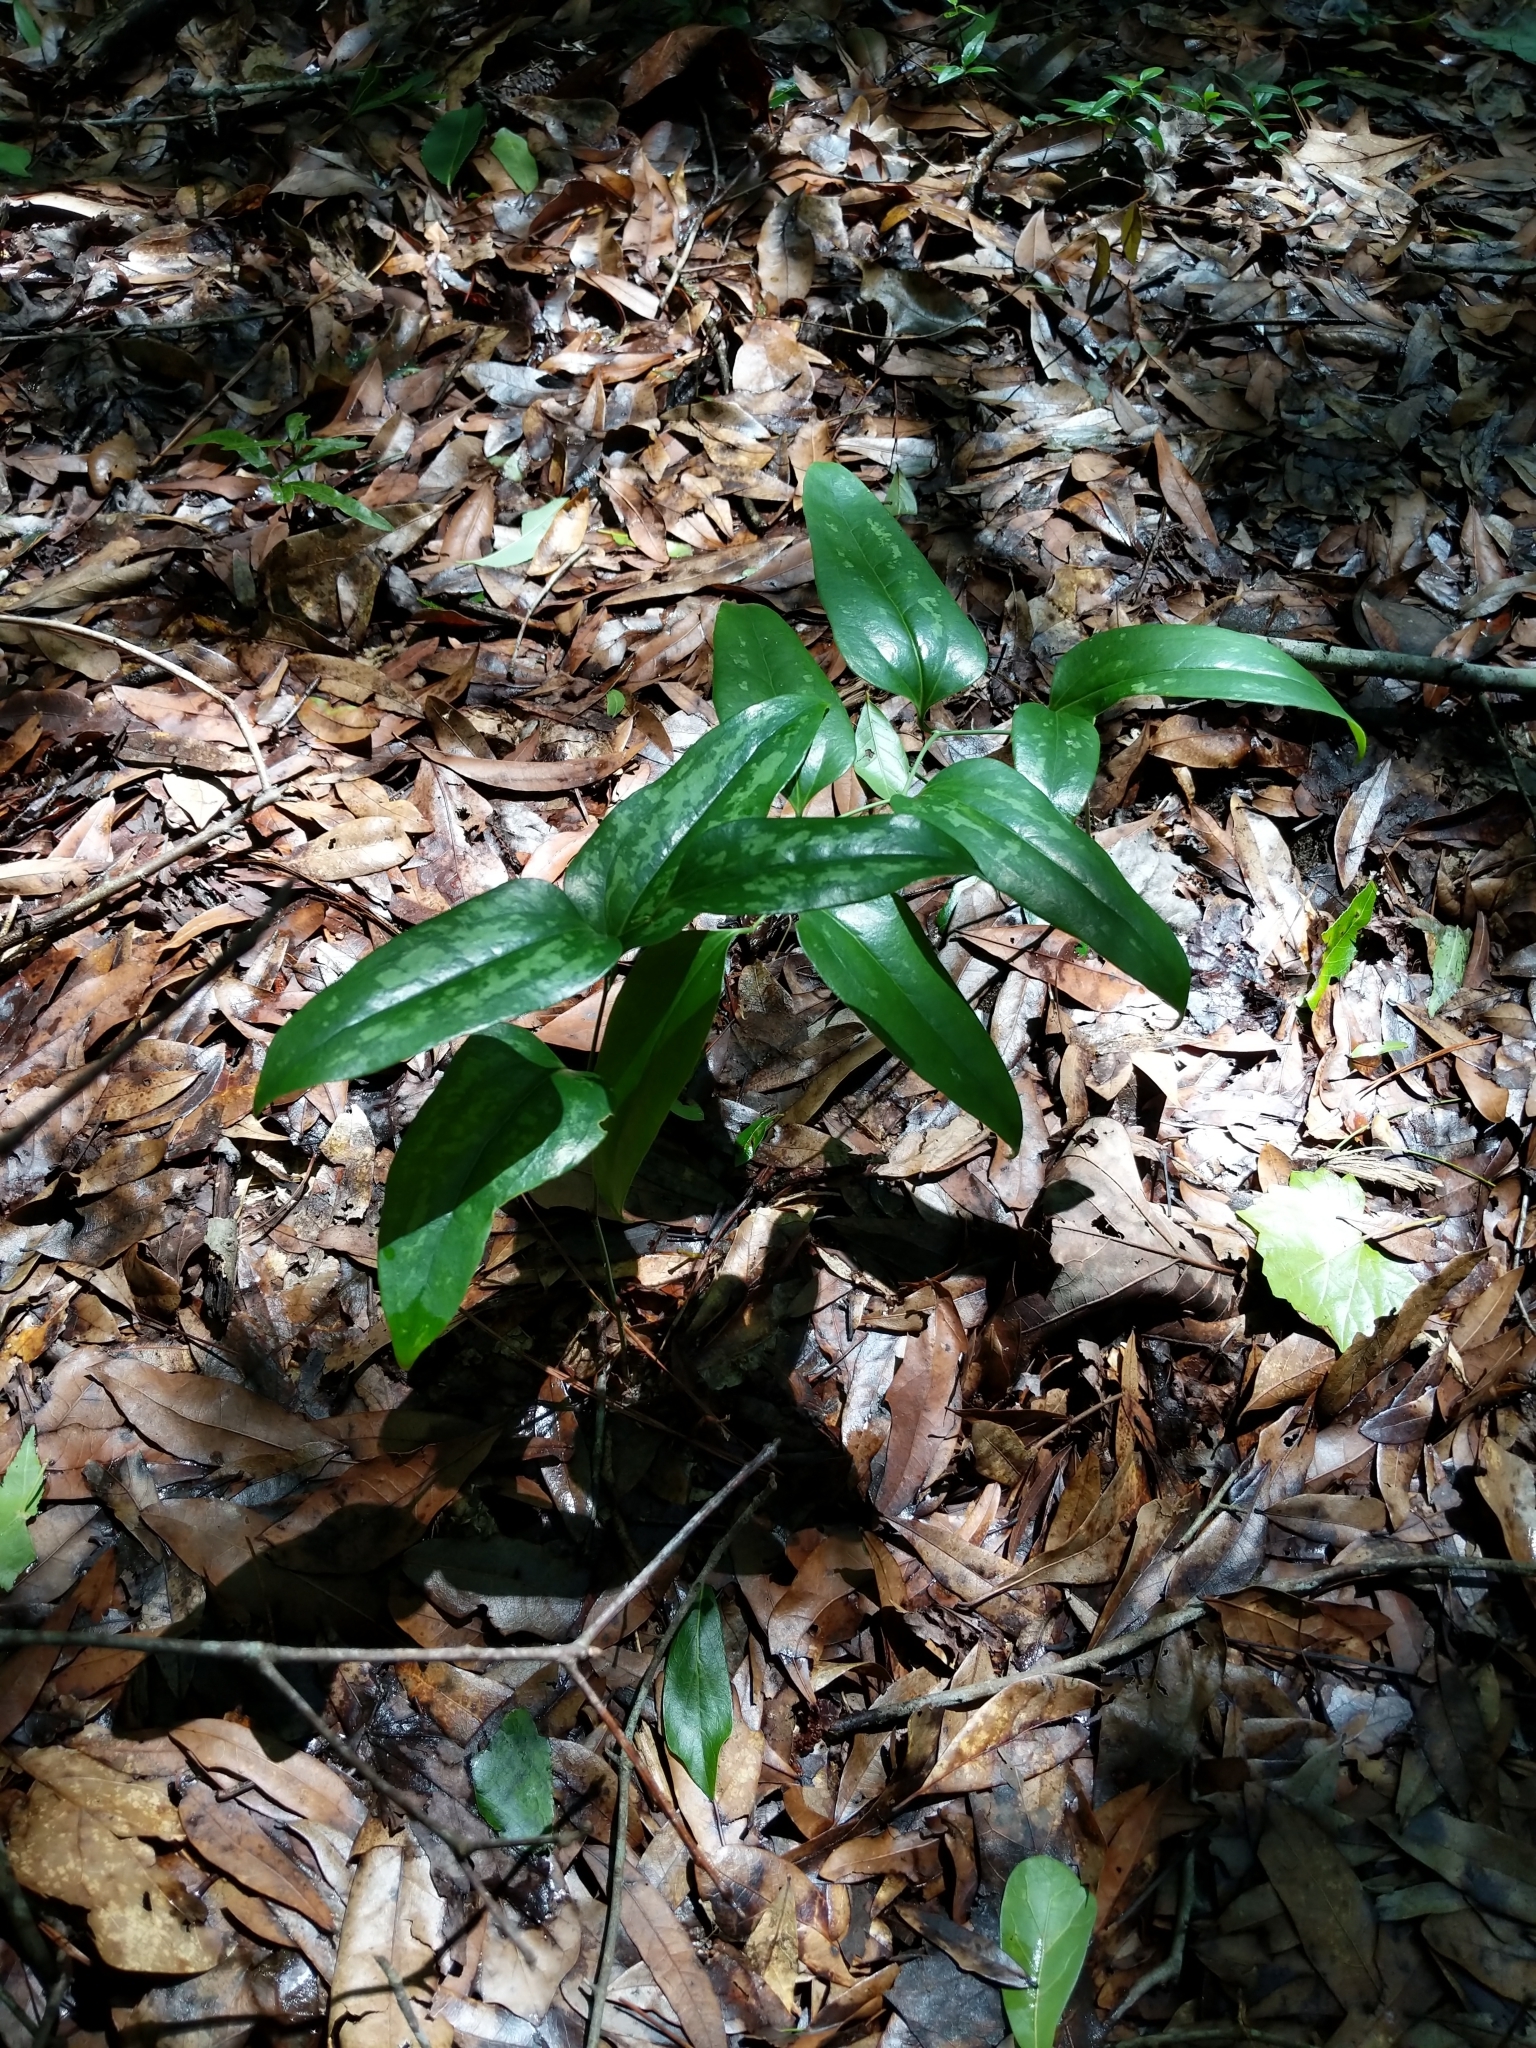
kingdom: Plantae
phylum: Tracheophyta
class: Liliopsida
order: Liliales
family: Smilacaceae
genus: Smilax
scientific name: Smilax bona-nox
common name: Catbrier
